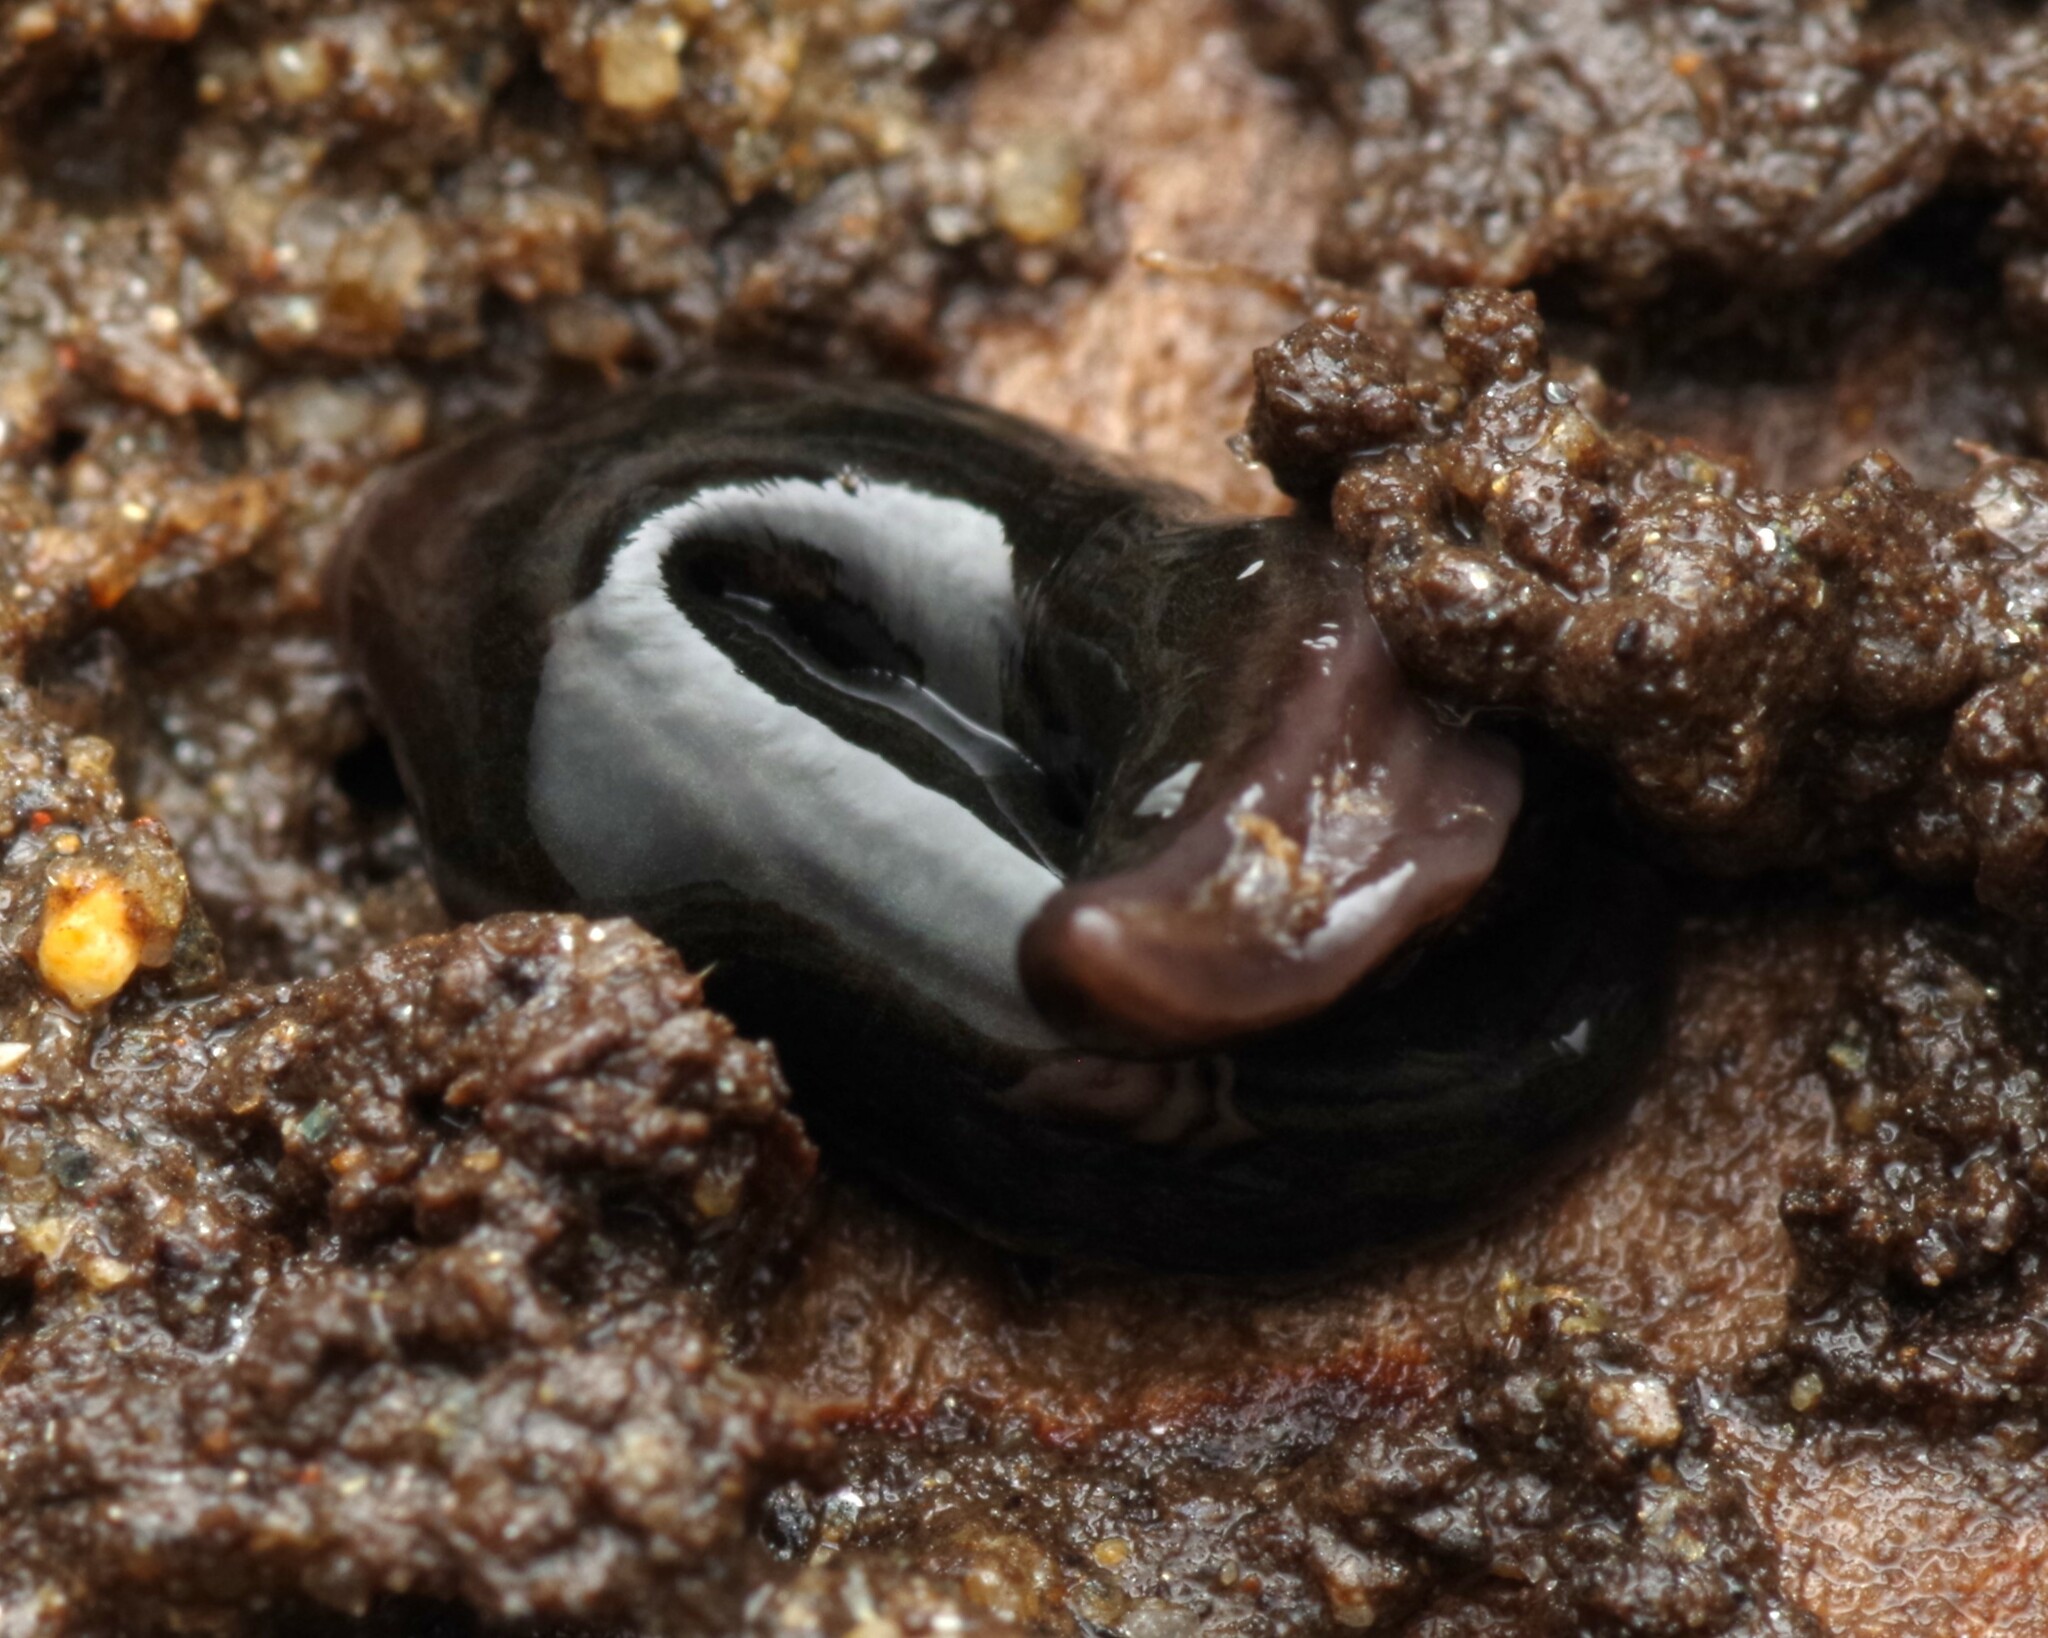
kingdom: Animalia
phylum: Platyhelminthes
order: Tricladida
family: Geoplanidae
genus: Parakontikia
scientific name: Parakontikia ventrolineata
